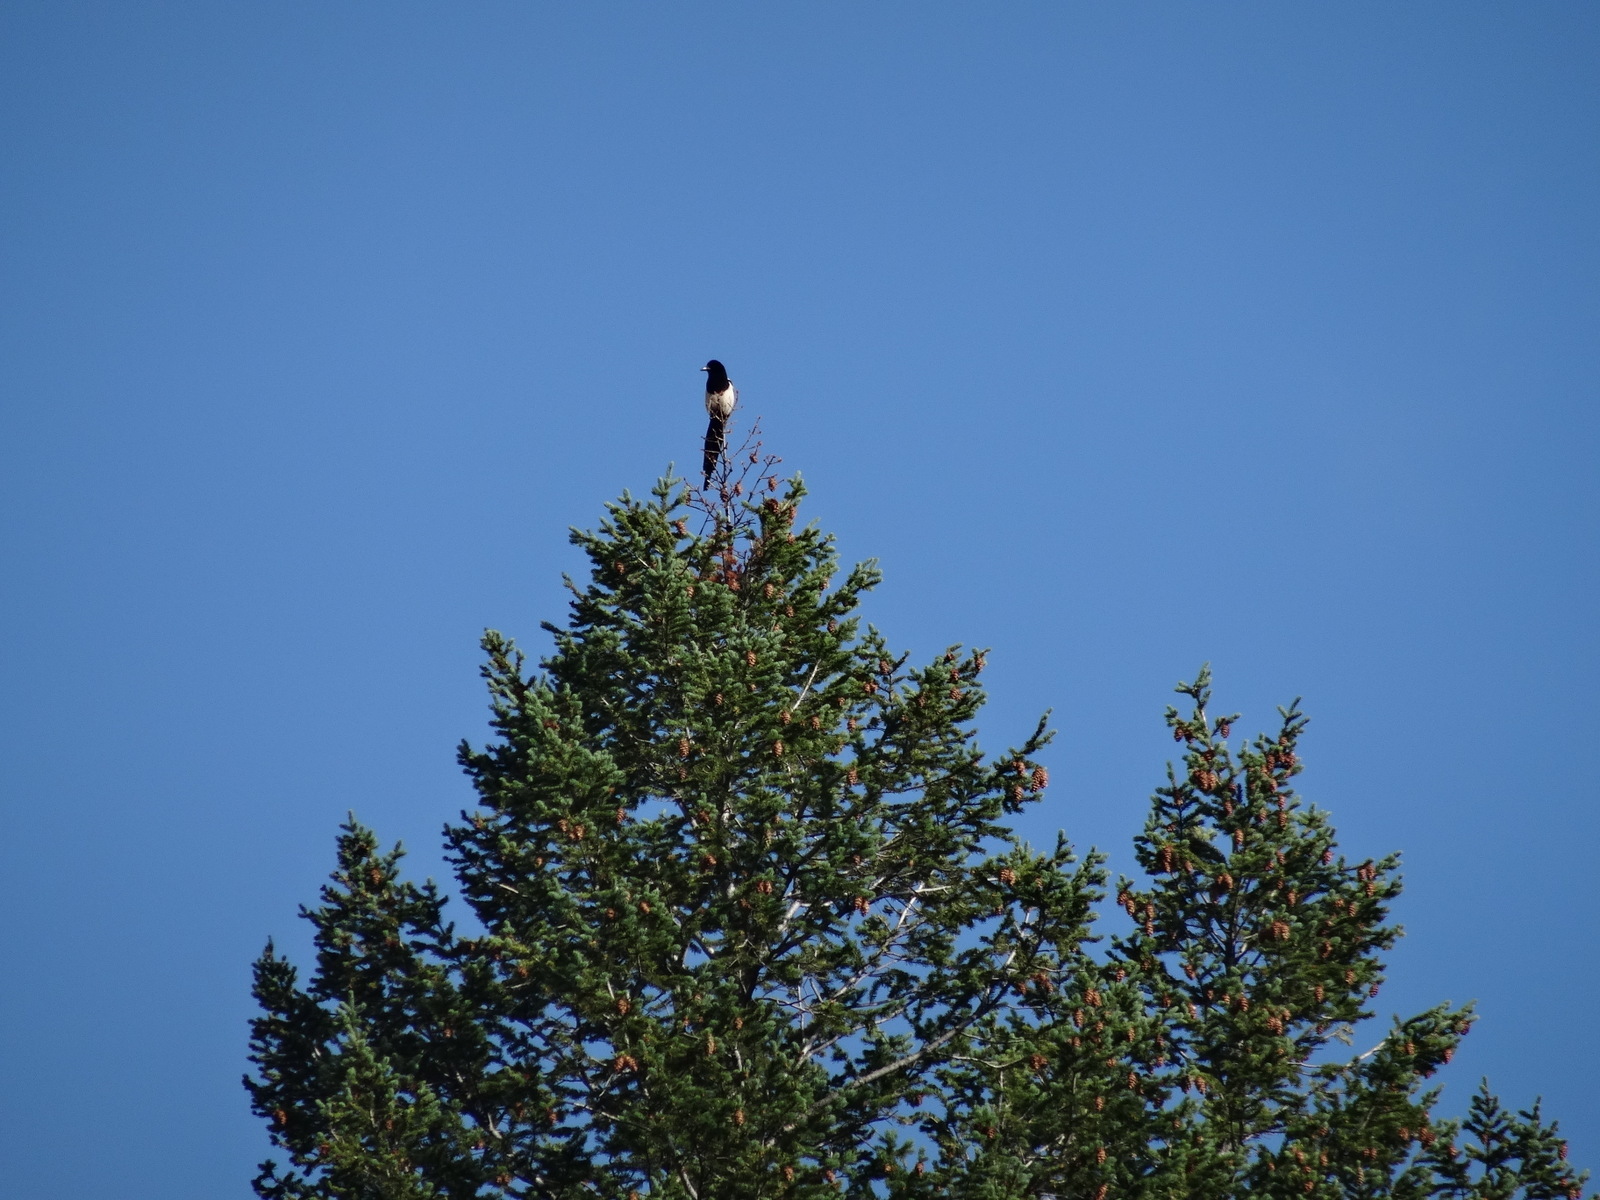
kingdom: Animalia
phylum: Chordata
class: Aves
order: Passeriformes
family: Corvidae
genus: Pica
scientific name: Pica hudsonia
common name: Black-billed magpie
